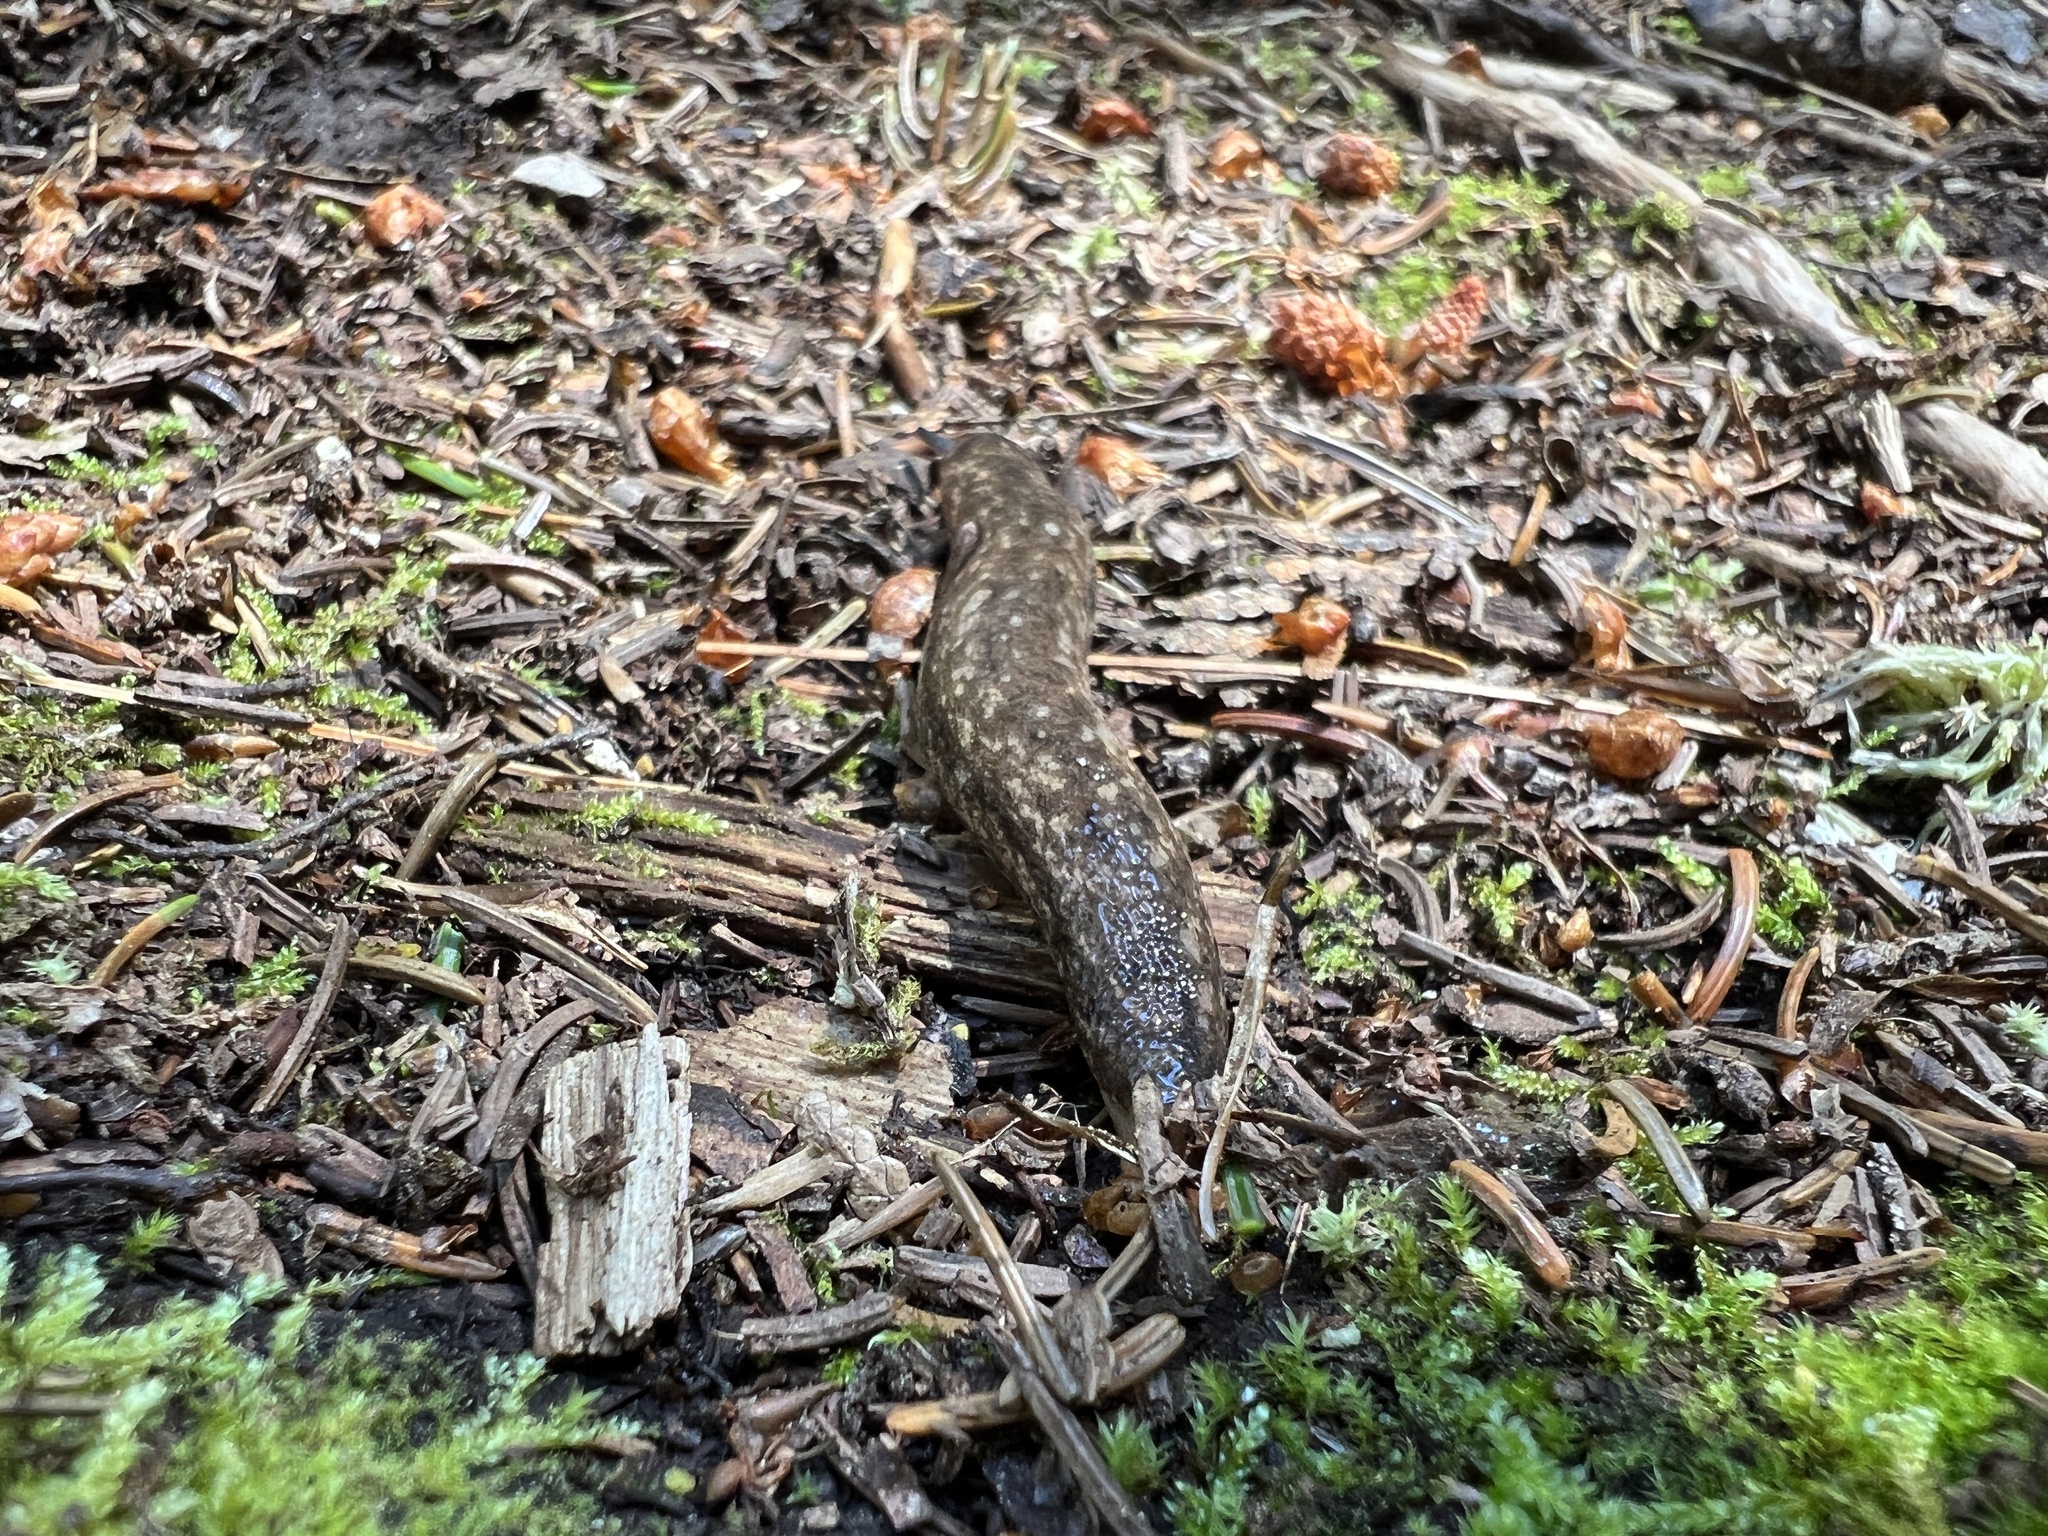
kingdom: Animalia
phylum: Mollusca
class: Gastropoda
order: Stylommatophora
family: Philomycidae
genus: Philomycus
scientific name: Philomycus togatus
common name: Toga mantleslug
